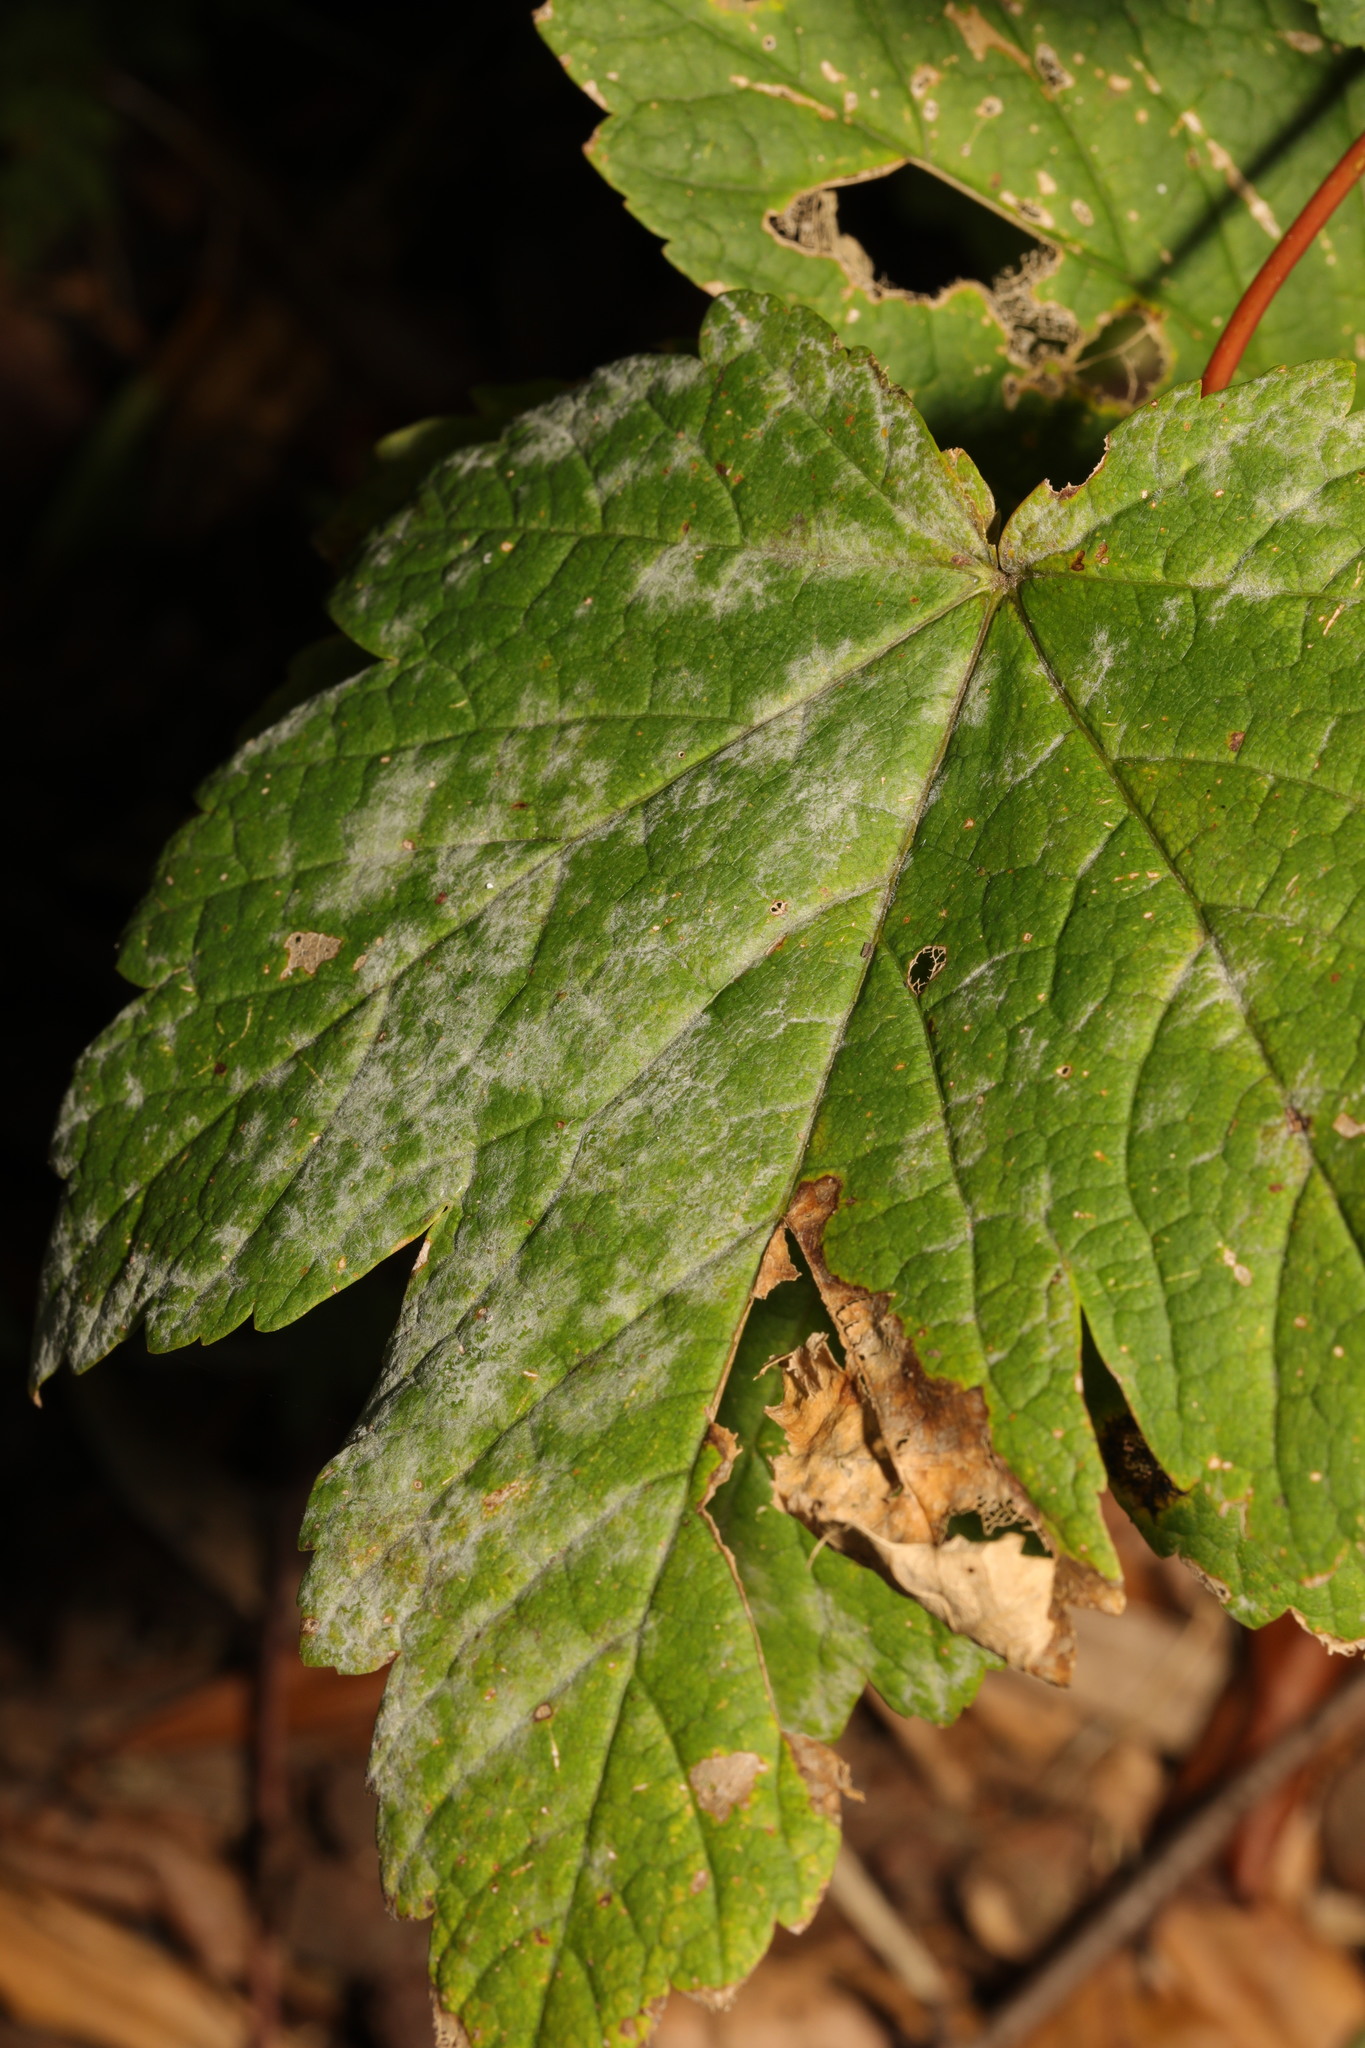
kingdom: Fungi
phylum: Ascomycota
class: Leotiomycetes
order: Helotiales
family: Erysiphaceae
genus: Sawadaea
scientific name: Sawadaea bicornis
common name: Maple mildew
